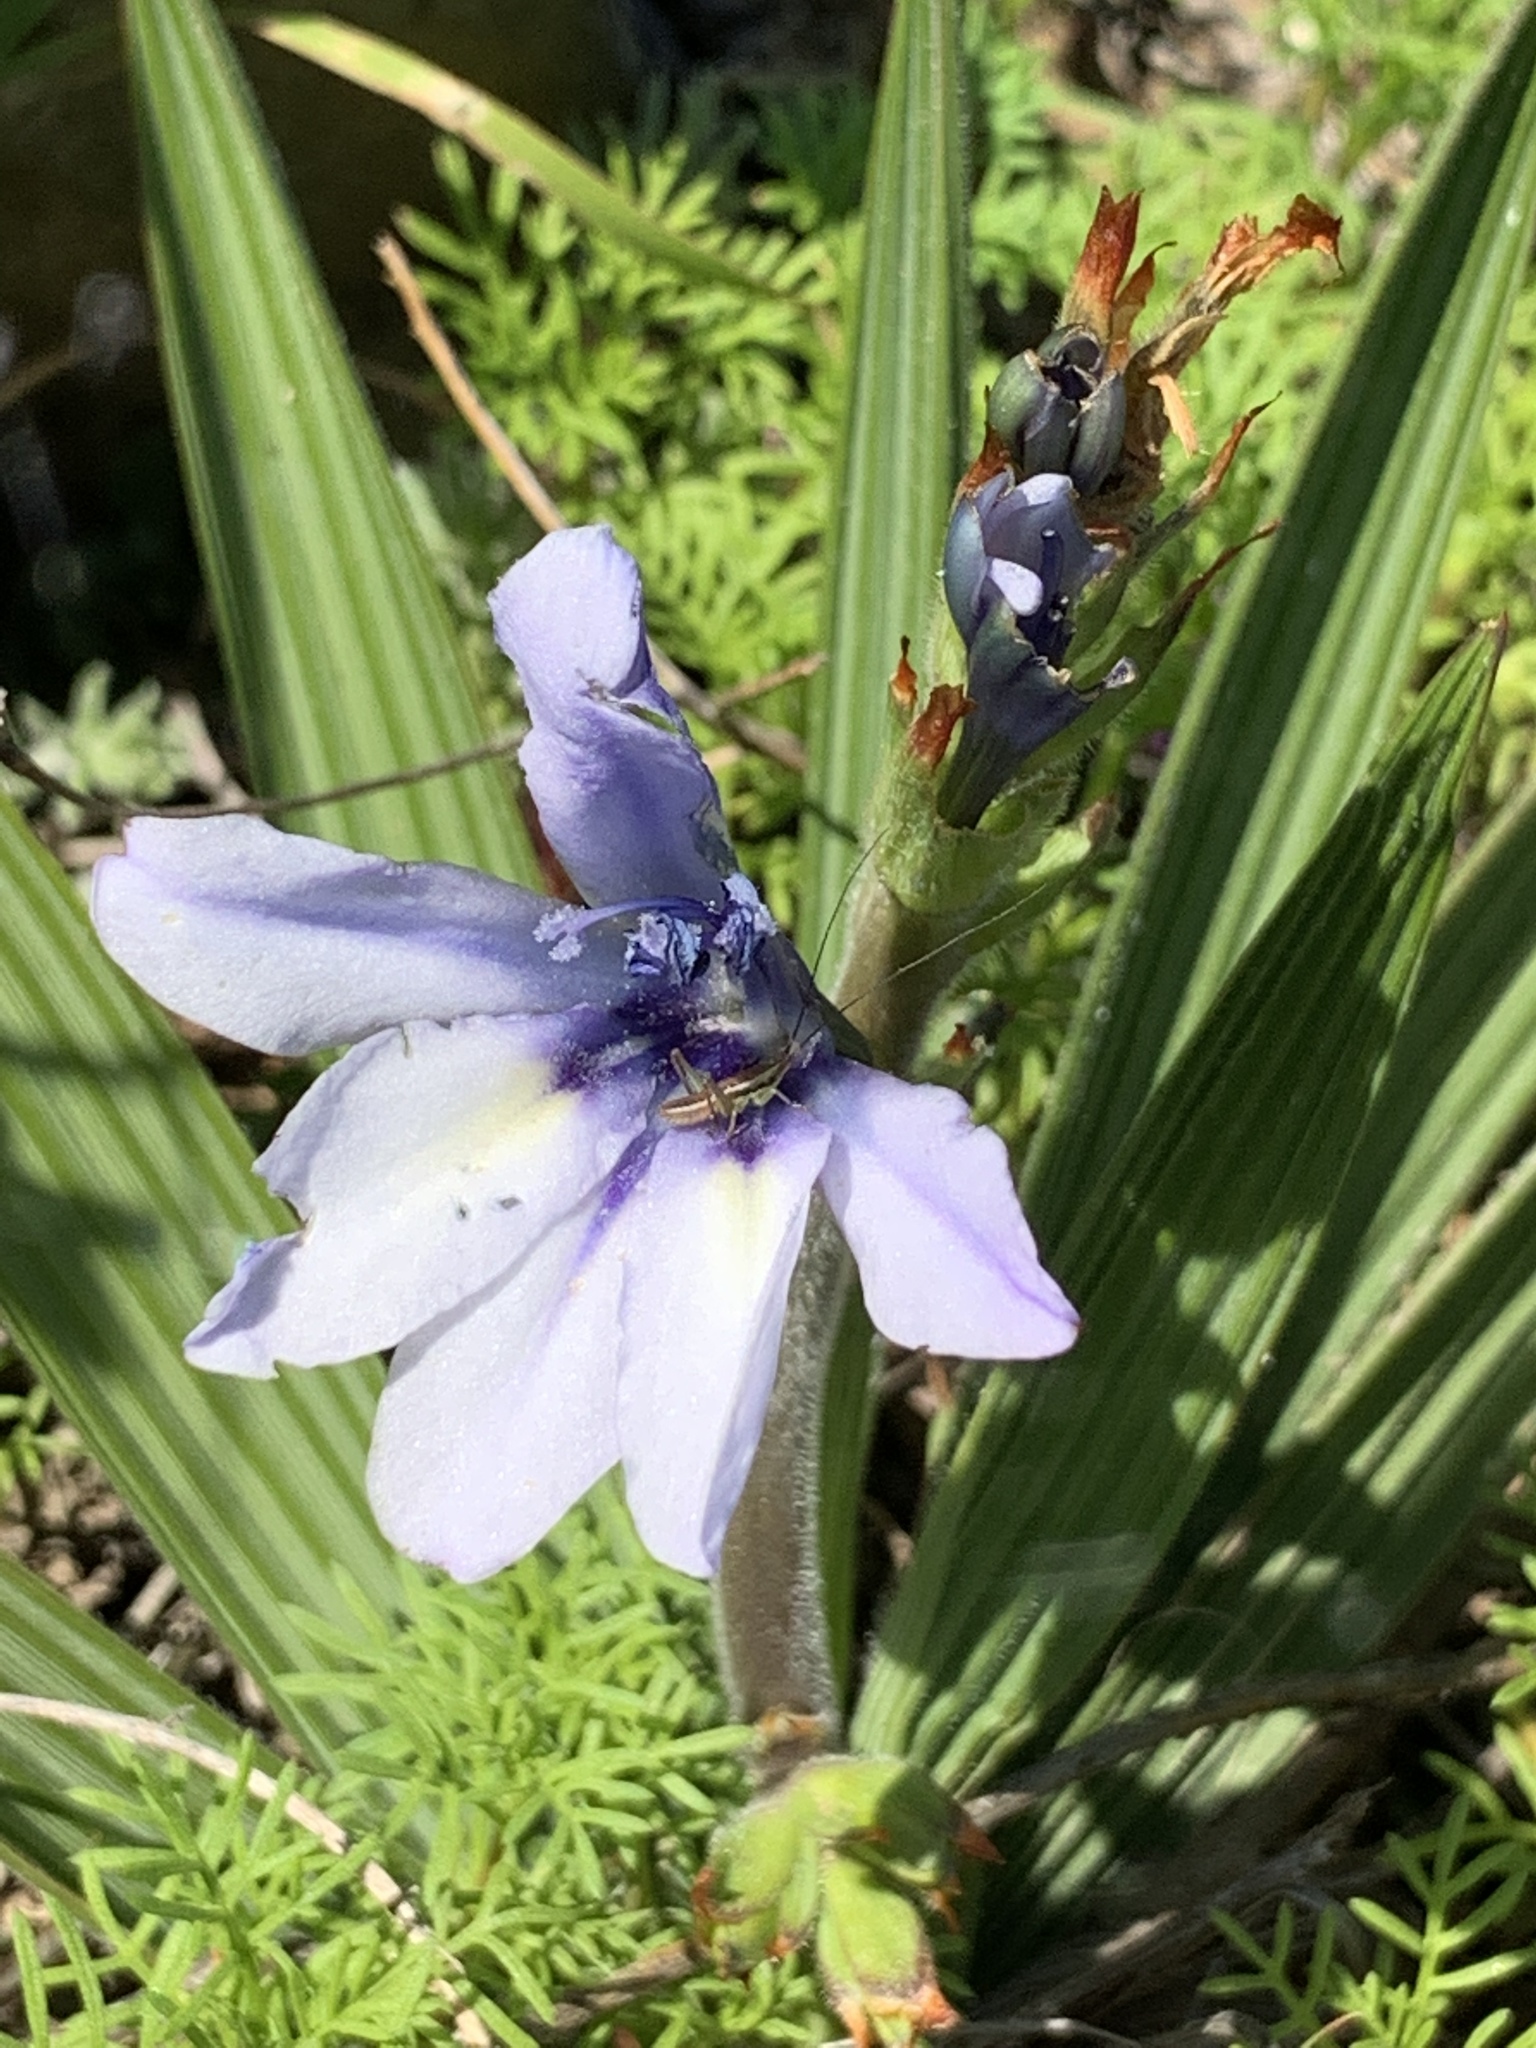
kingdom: Plantae
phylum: Tracheophyta
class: Liliopsida
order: Asparagales
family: Iridaceae
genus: Babiana
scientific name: Babiana fragrans
